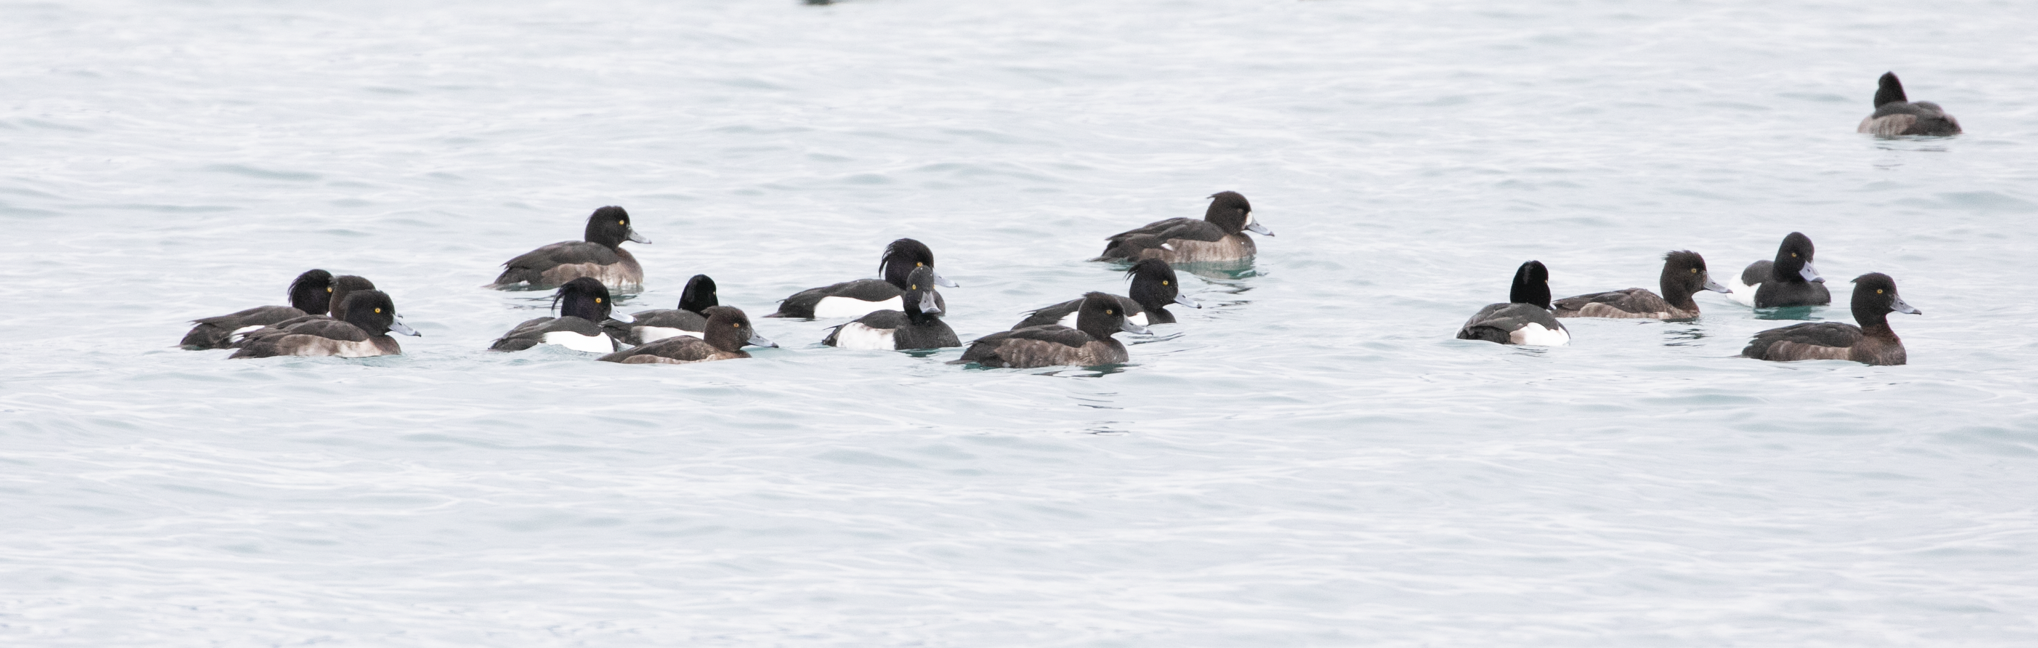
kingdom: Animalia
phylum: Chordata
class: Aves
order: Anseriformes
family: Anatidae
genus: Aythya
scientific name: Aythya fuligula
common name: Tufted duck
